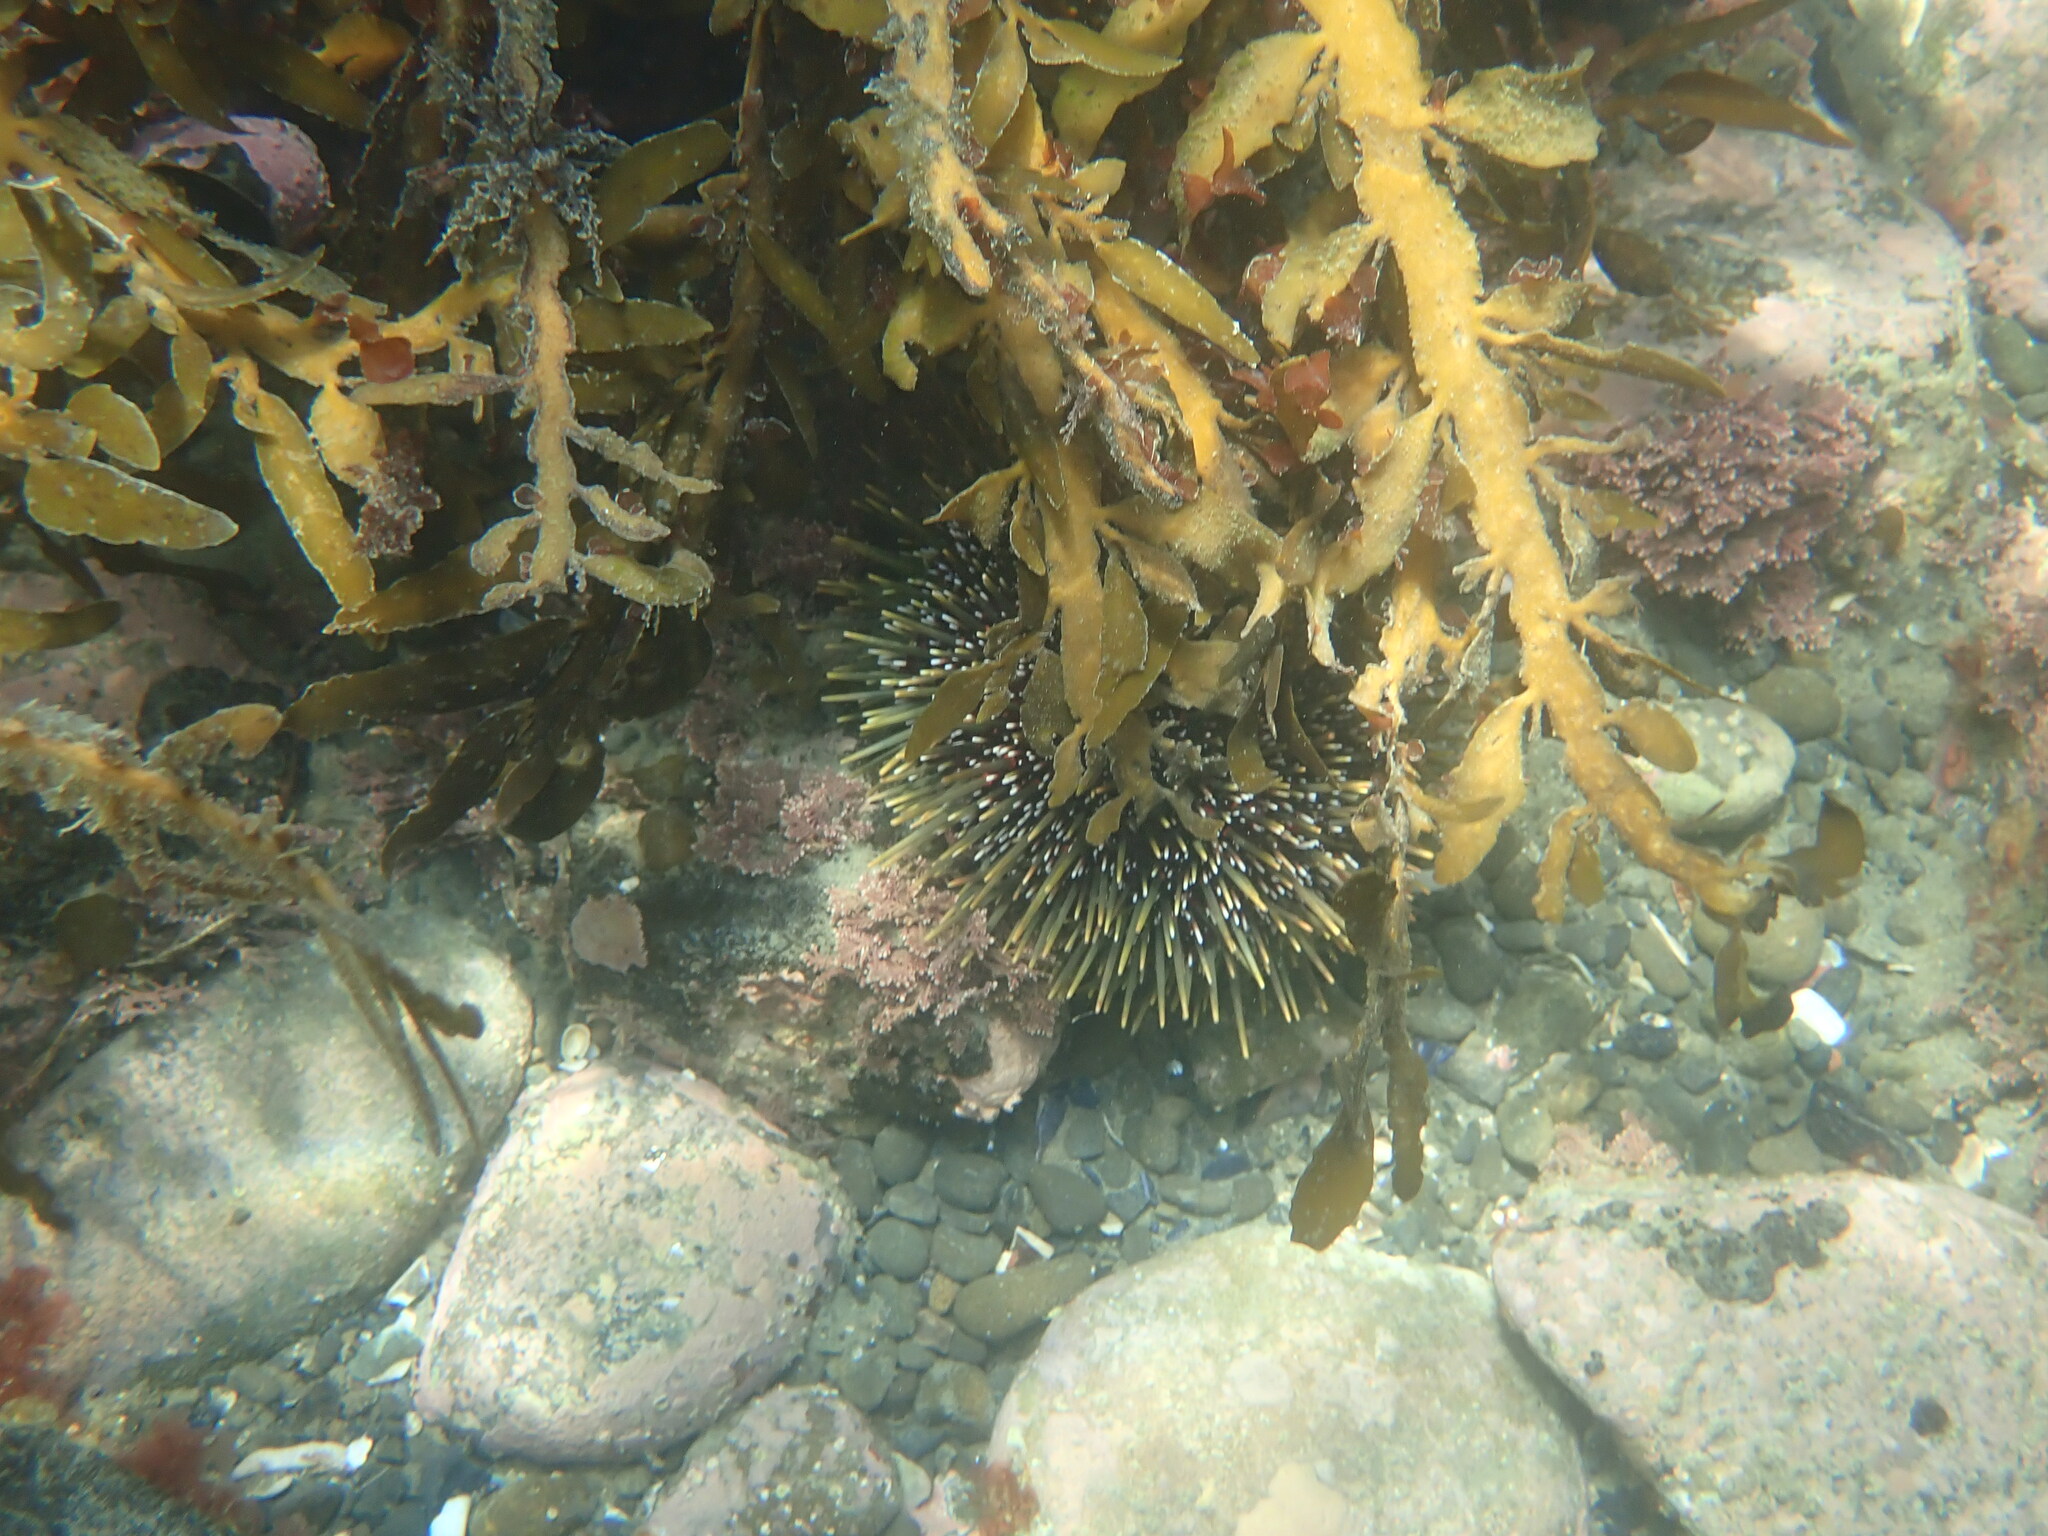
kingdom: Animalia
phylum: Echinodermata
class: Echinoidea
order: Camarodonta
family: Echinometridae
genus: Evechinus
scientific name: Evechinus chloroticus
